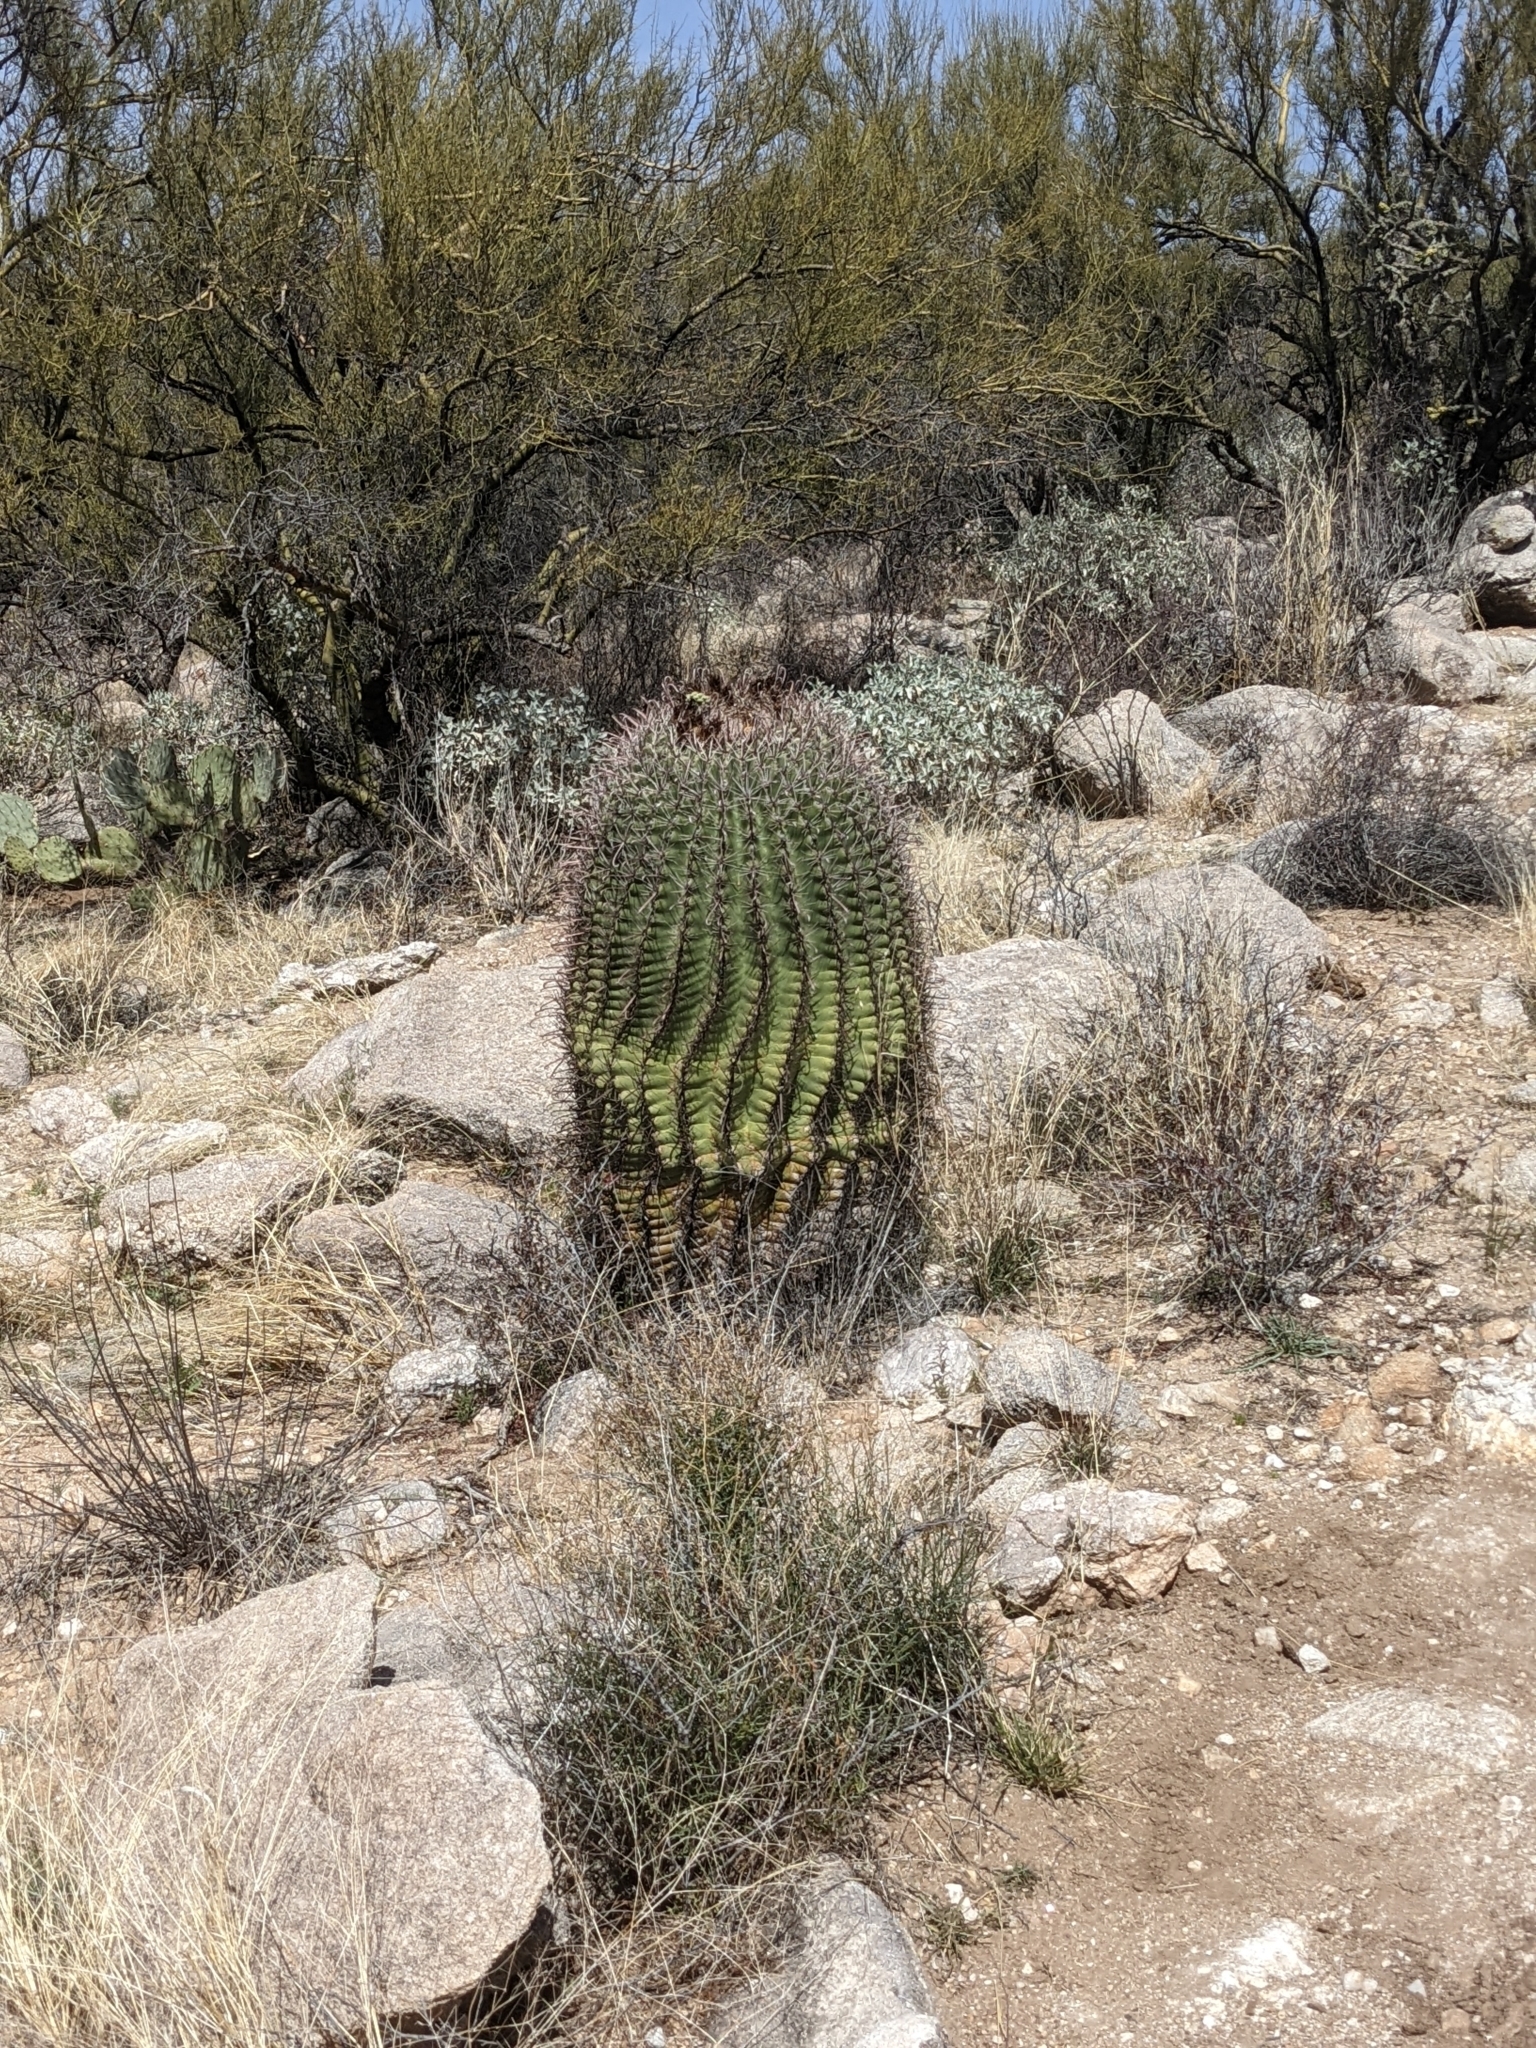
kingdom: Plantae
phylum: Tracheophyta
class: Magnoliopsida
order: Caryophyllales
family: Cactaceae
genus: Ferocactus
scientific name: Ferocactus wislizeni
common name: Candy barrel cactus
